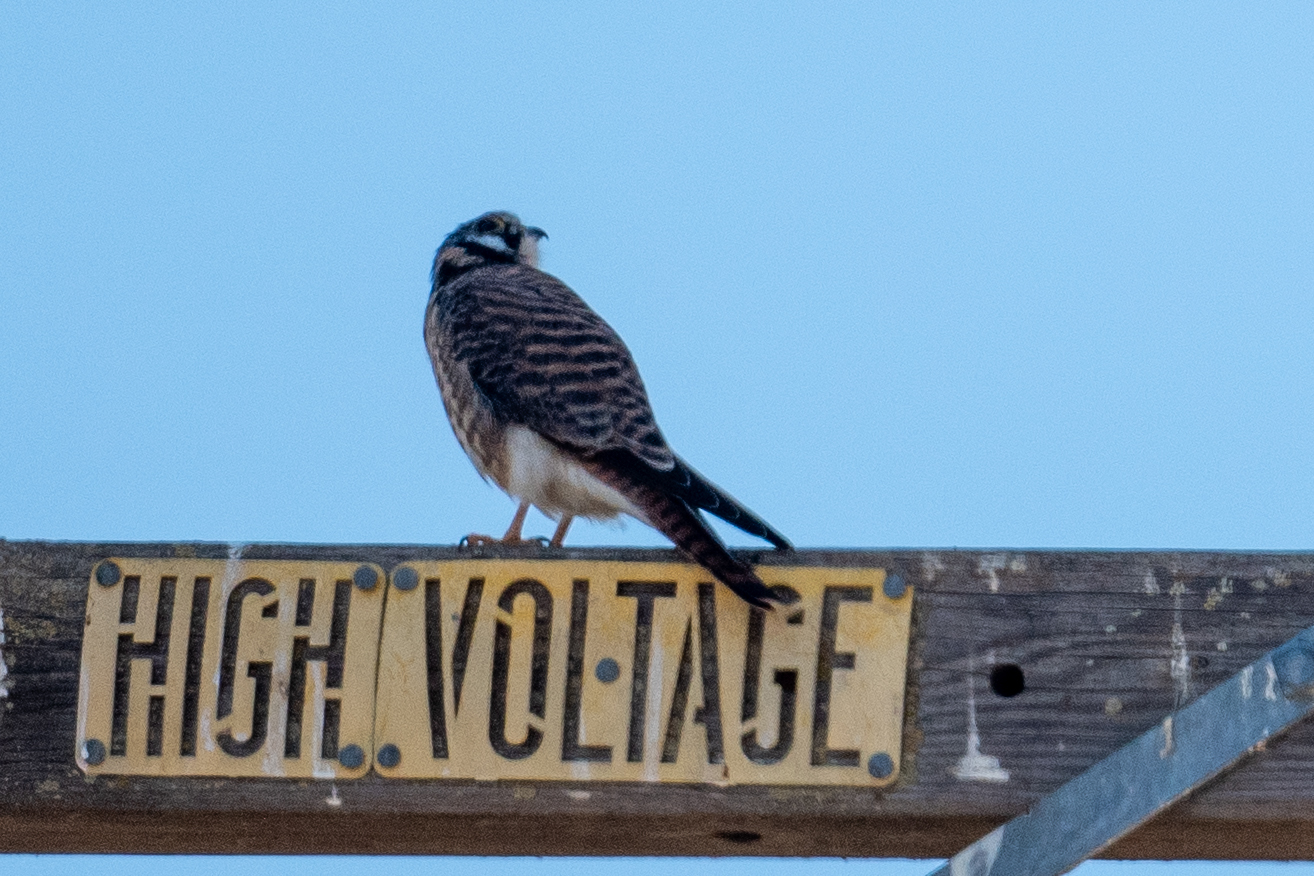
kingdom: Animalia
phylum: Chordata
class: Aves
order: Falconiformes
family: Falconidae
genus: Falco
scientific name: Falco sparverius
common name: American kestrel
